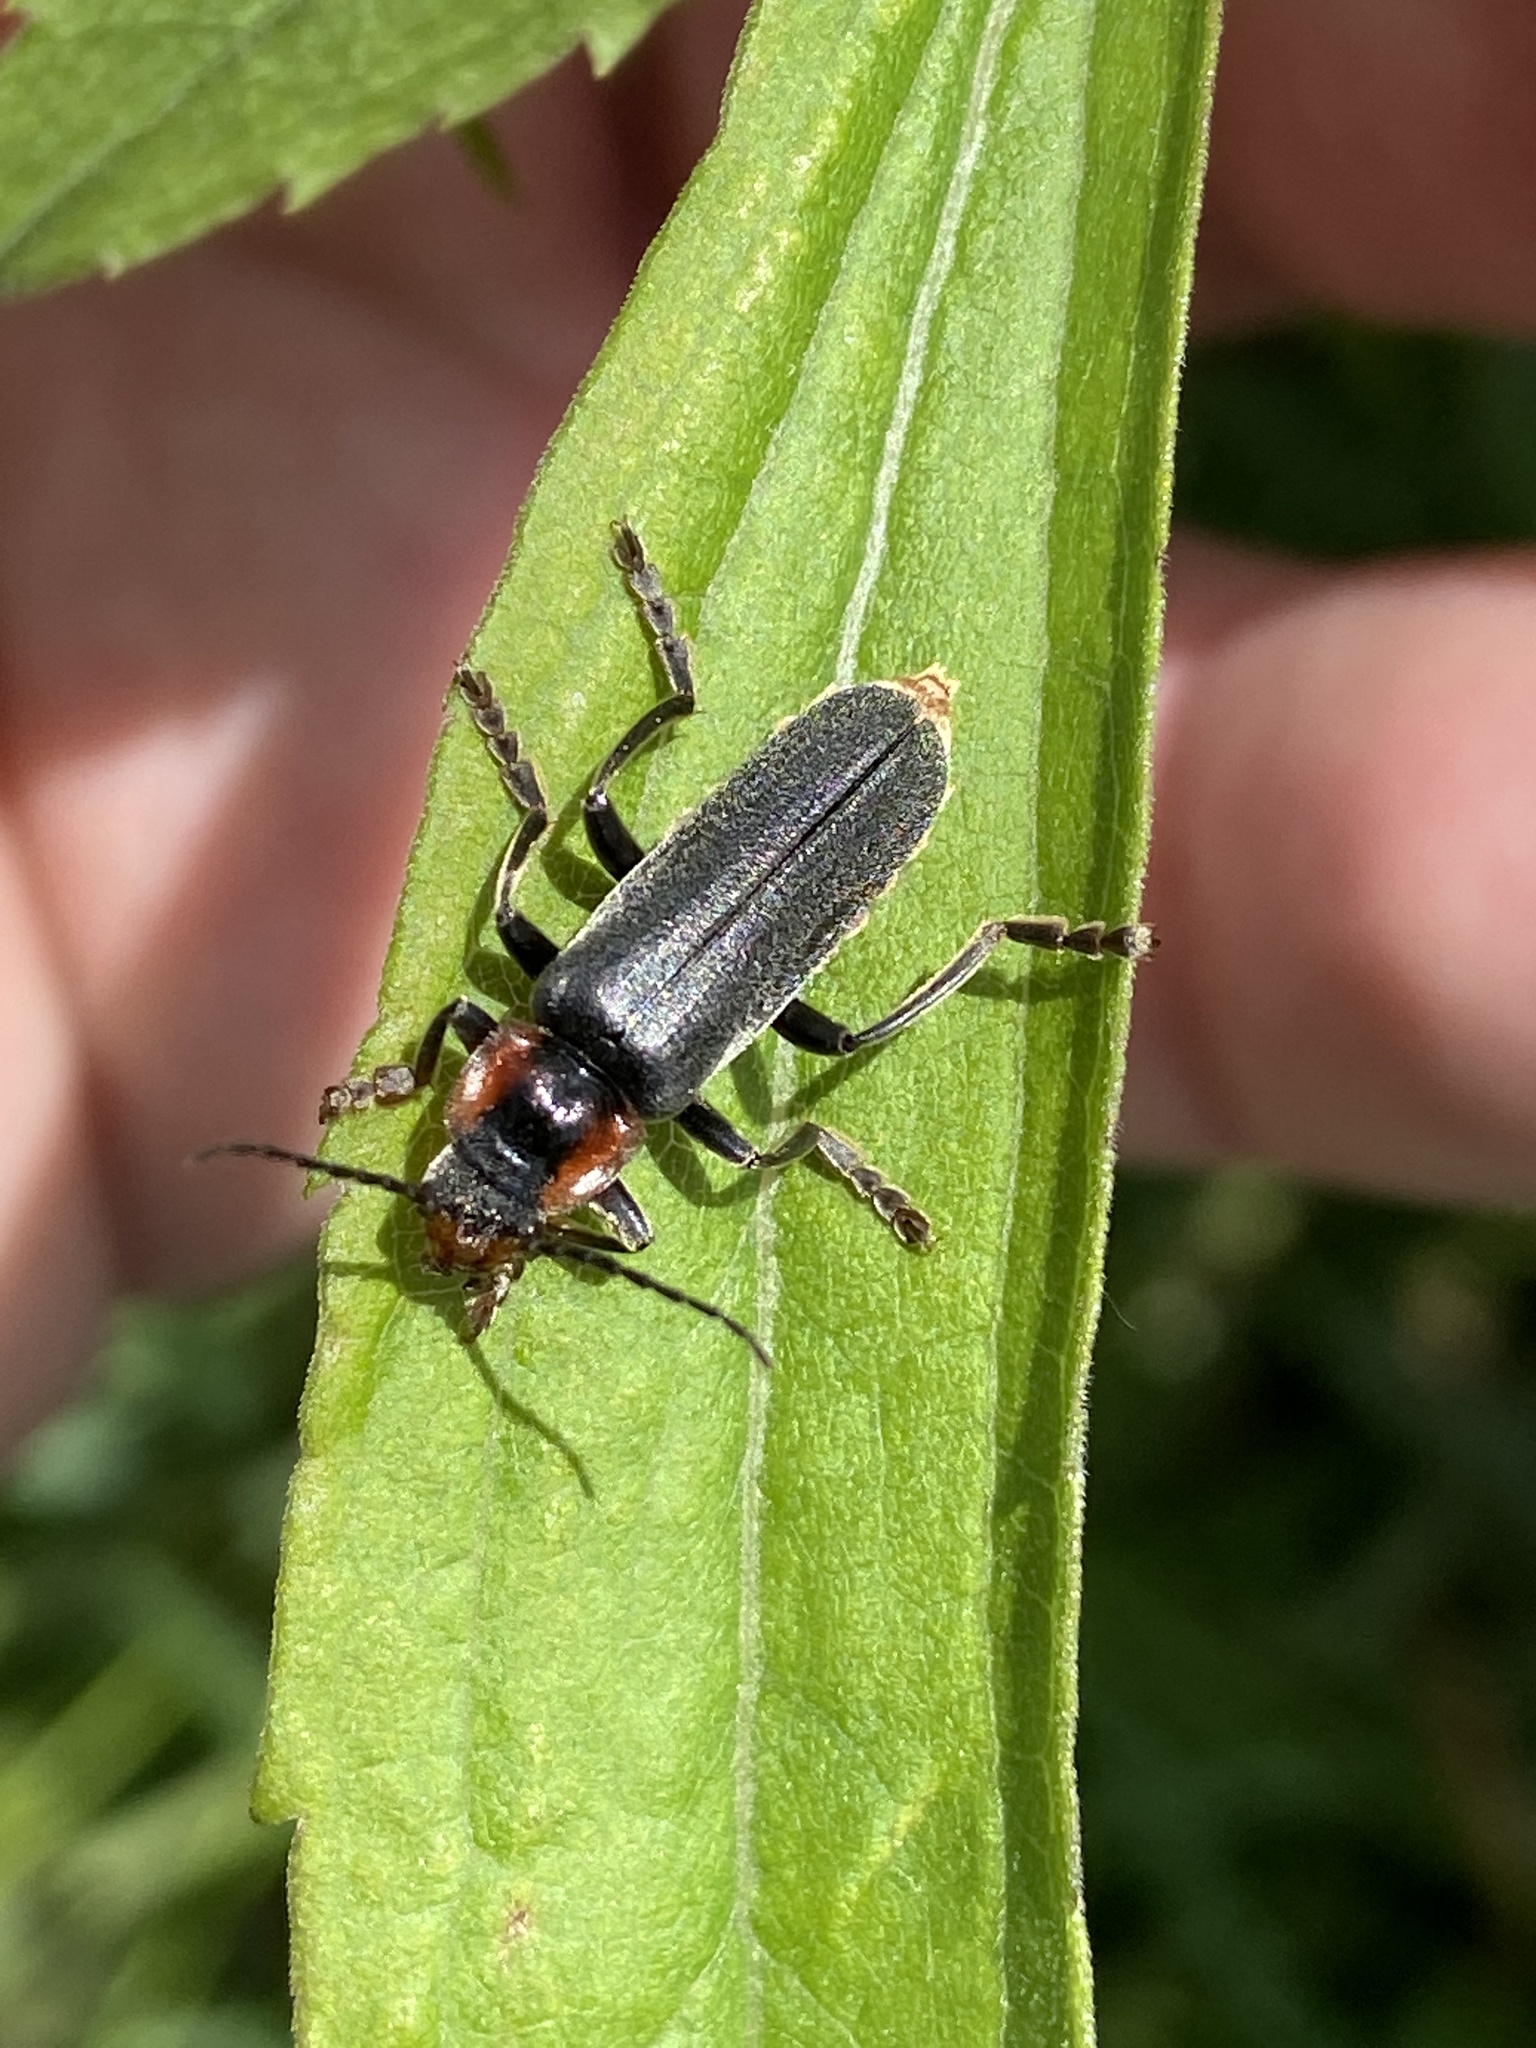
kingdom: Animalia
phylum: Arthropoda
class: Insecta
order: Coleoptera
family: Cantharidae
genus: Cantharis
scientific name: Cantharis fusca
